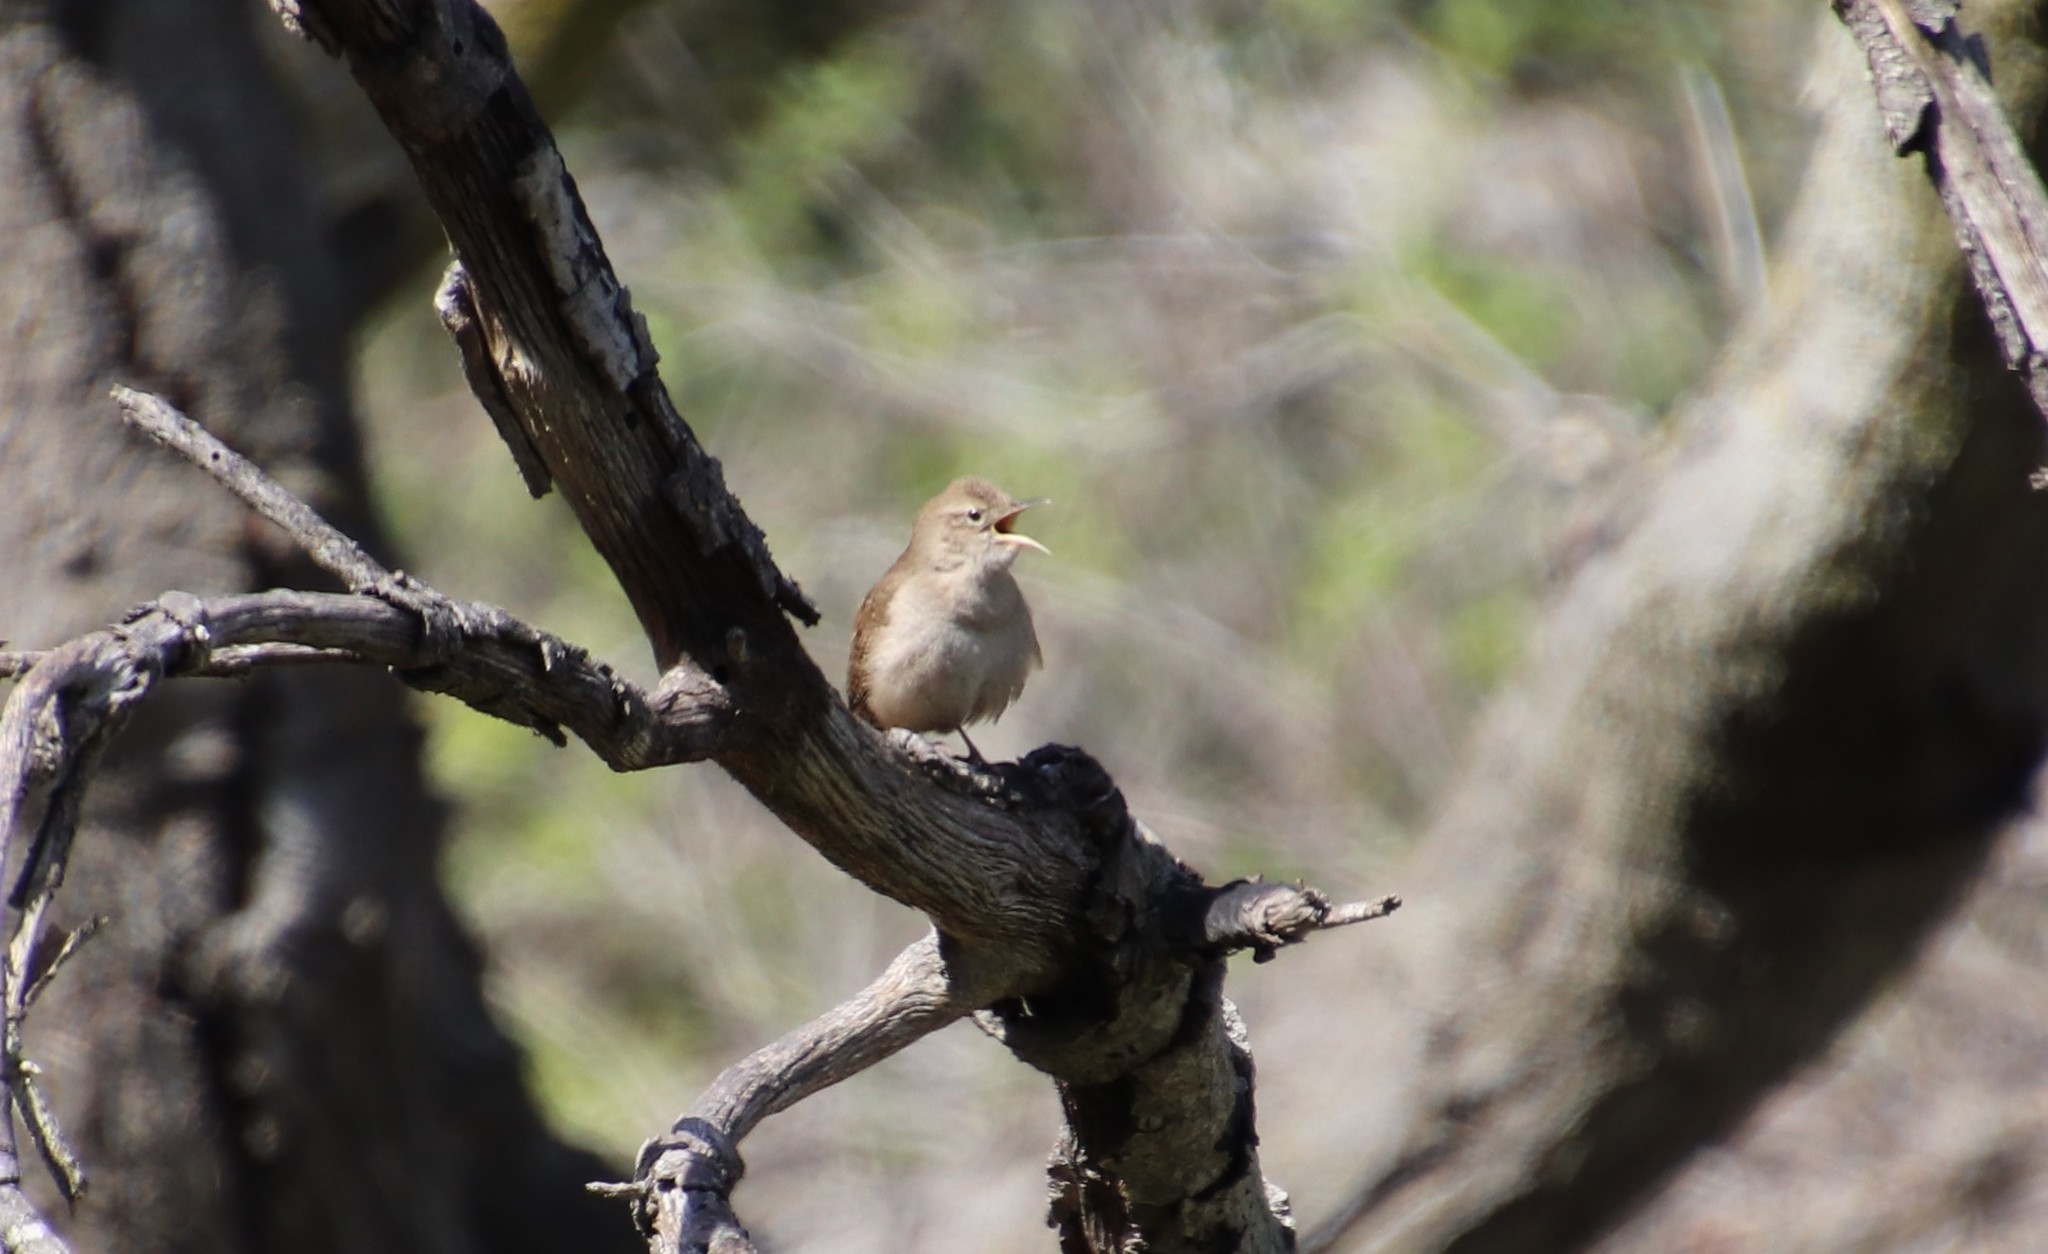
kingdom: Animalia
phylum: Chordata
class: Aves
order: Passeriformes
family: Troglodytidae
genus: Troglodytes
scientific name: Troglodytes aedon
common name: House wren
